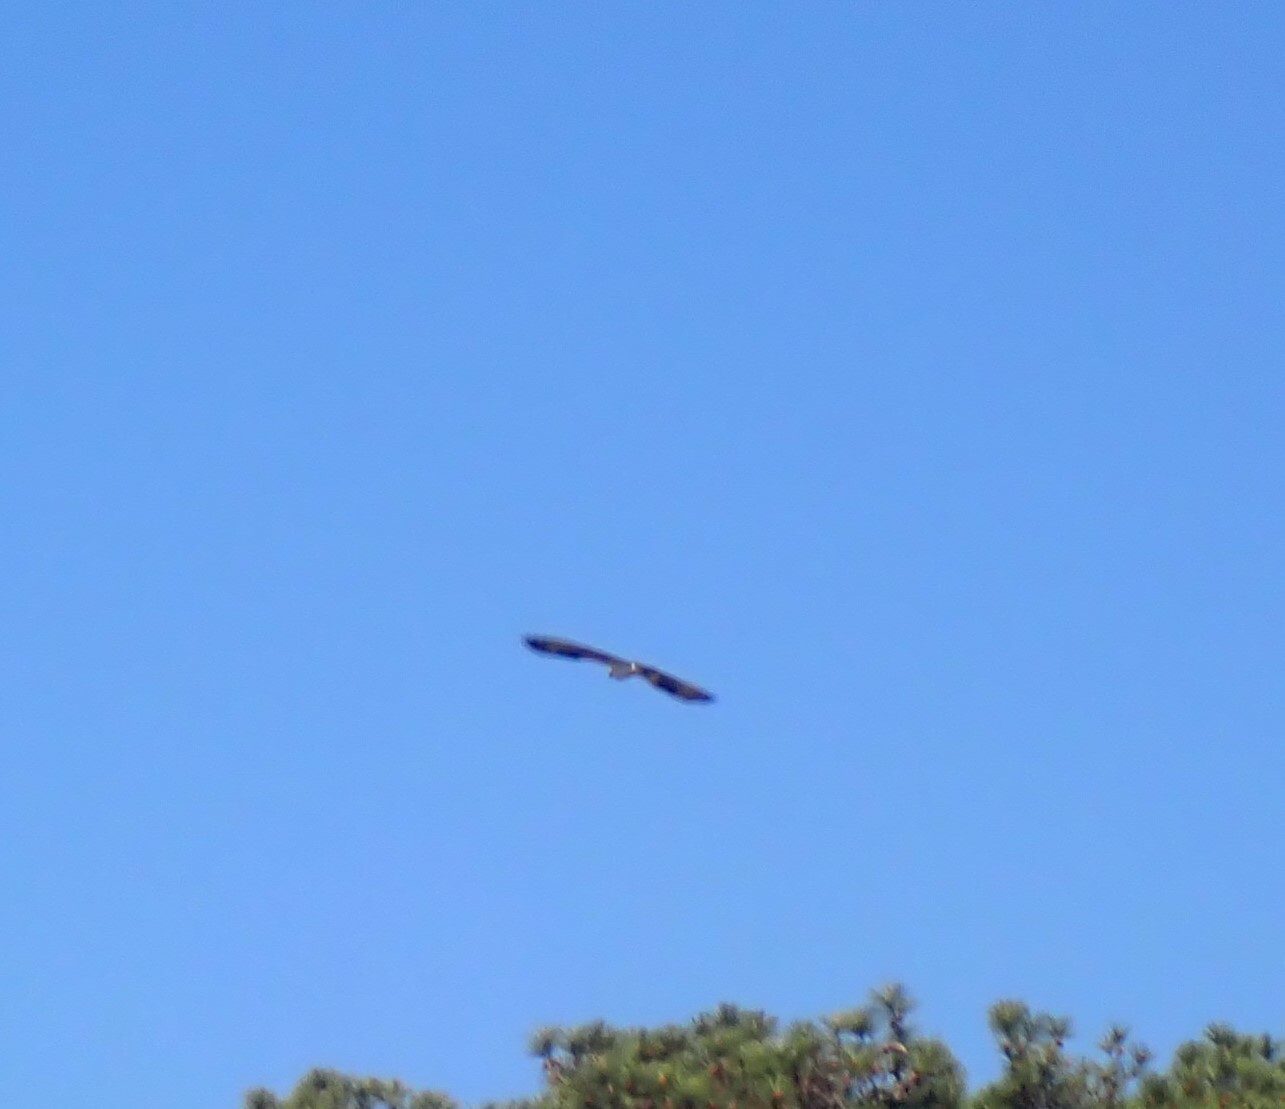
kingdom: Animalia
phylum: Chordata
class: Aves
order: Accipitriformes
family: Pandionidae
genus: Pandion
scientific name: Pandion haliaetus
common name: Osprey
